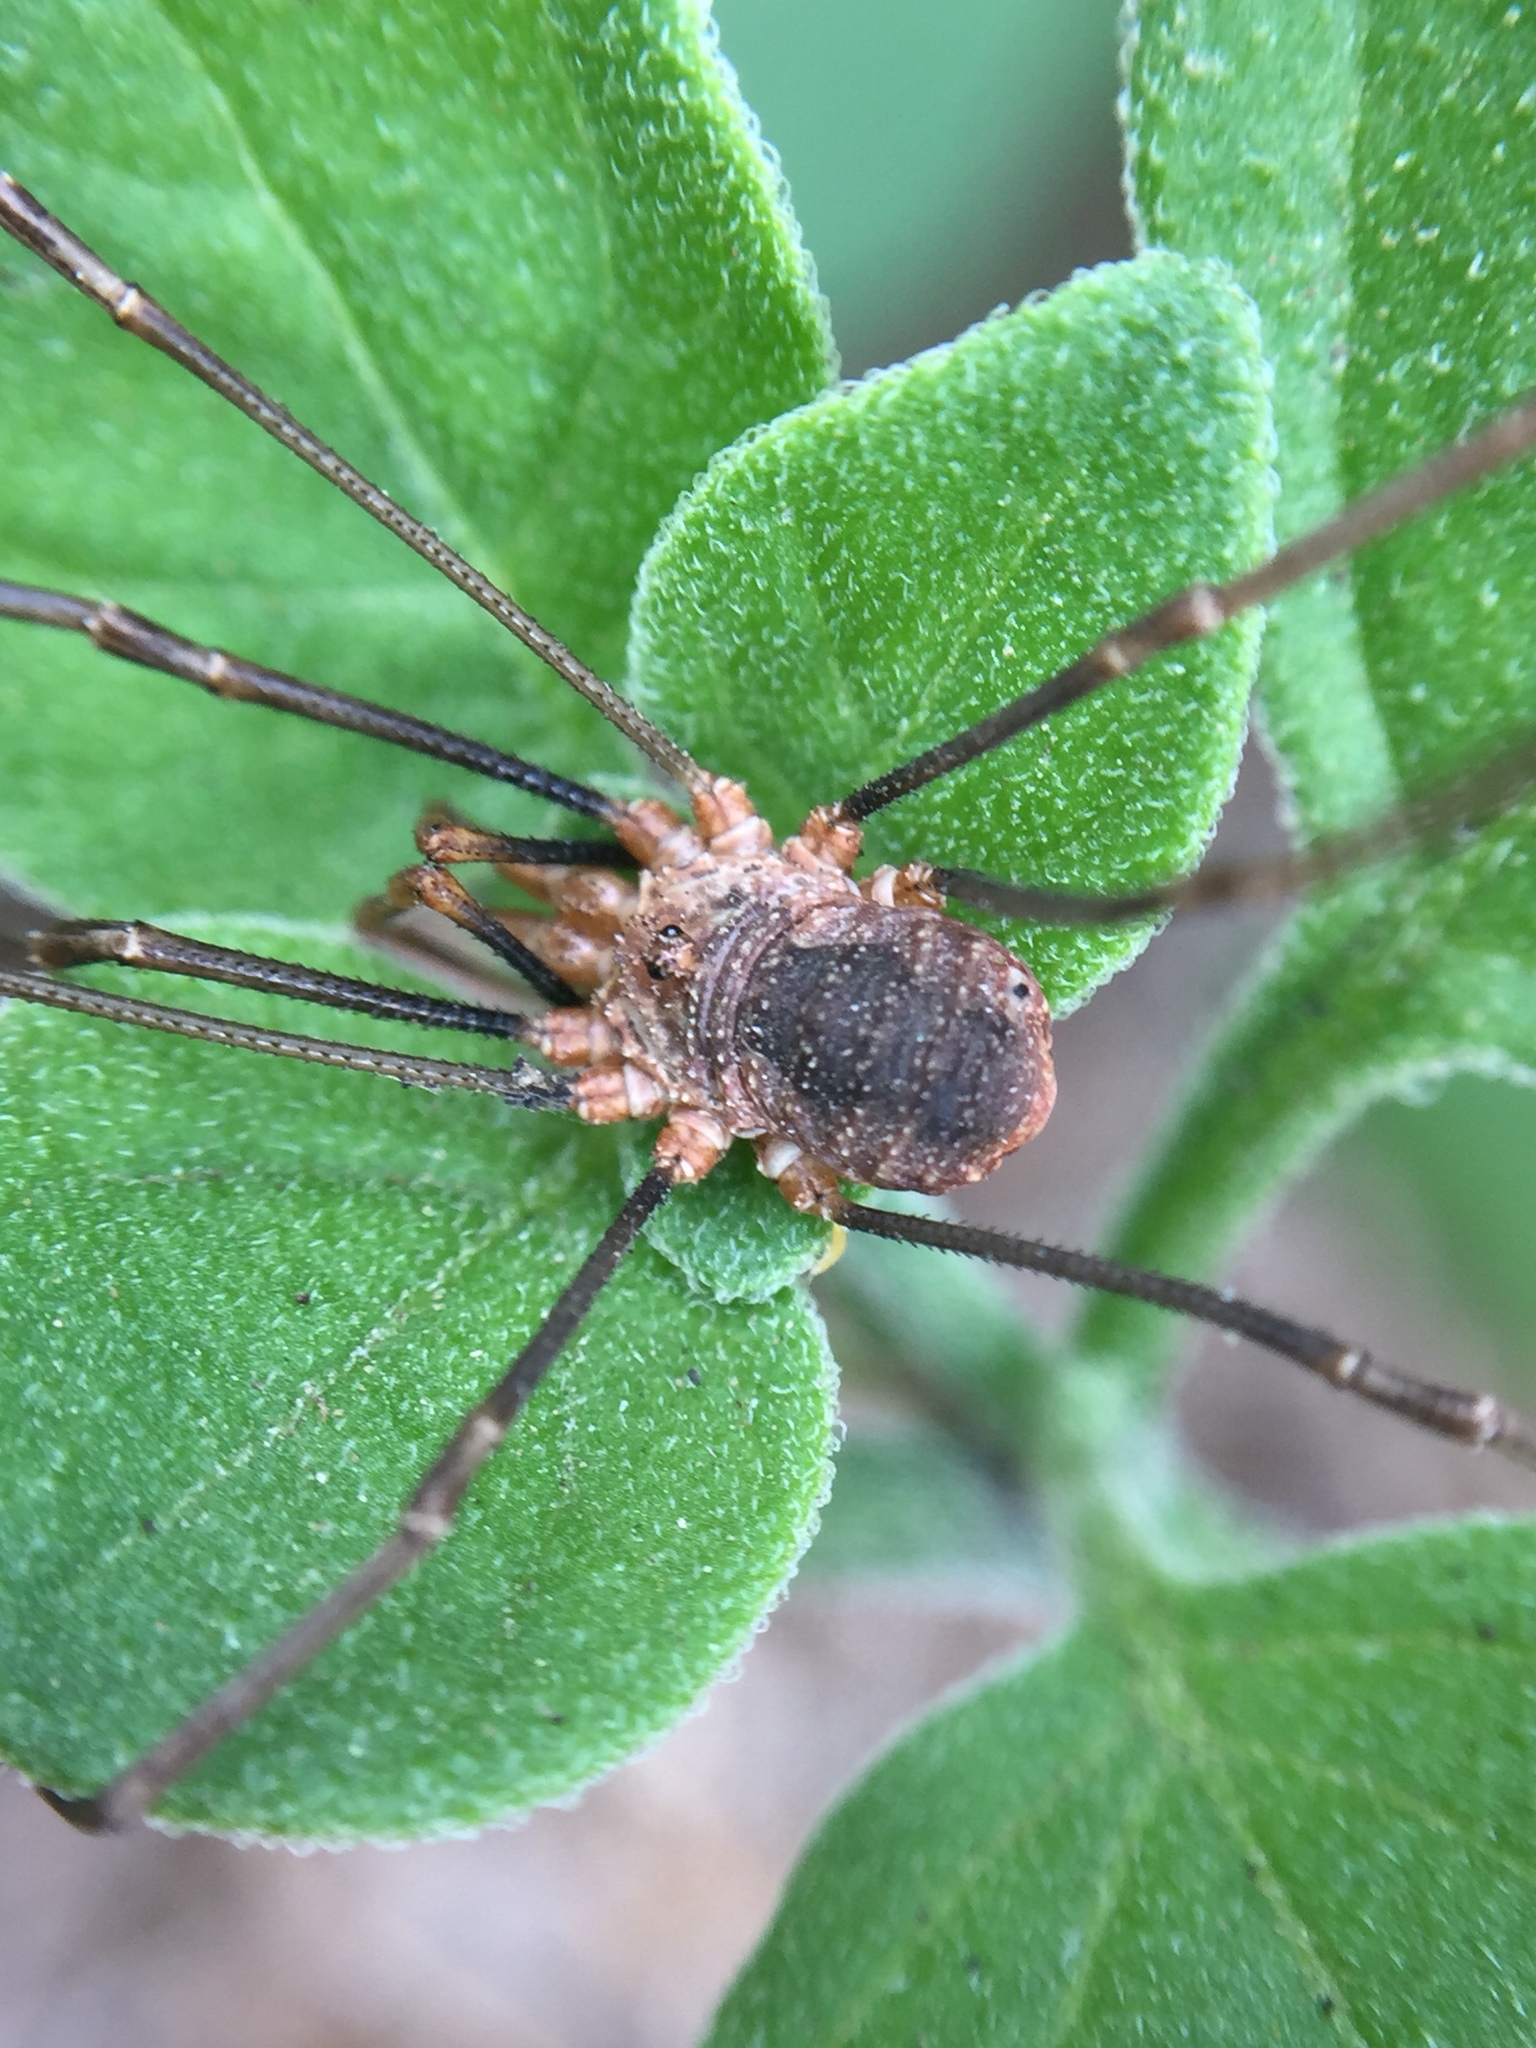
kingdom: Animalia
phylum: Arthropoda
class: Arachnida
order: Opiliones
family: Phalangiidae
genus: Phalangium
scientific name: Phalangium opilio
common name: Daddy longleg
